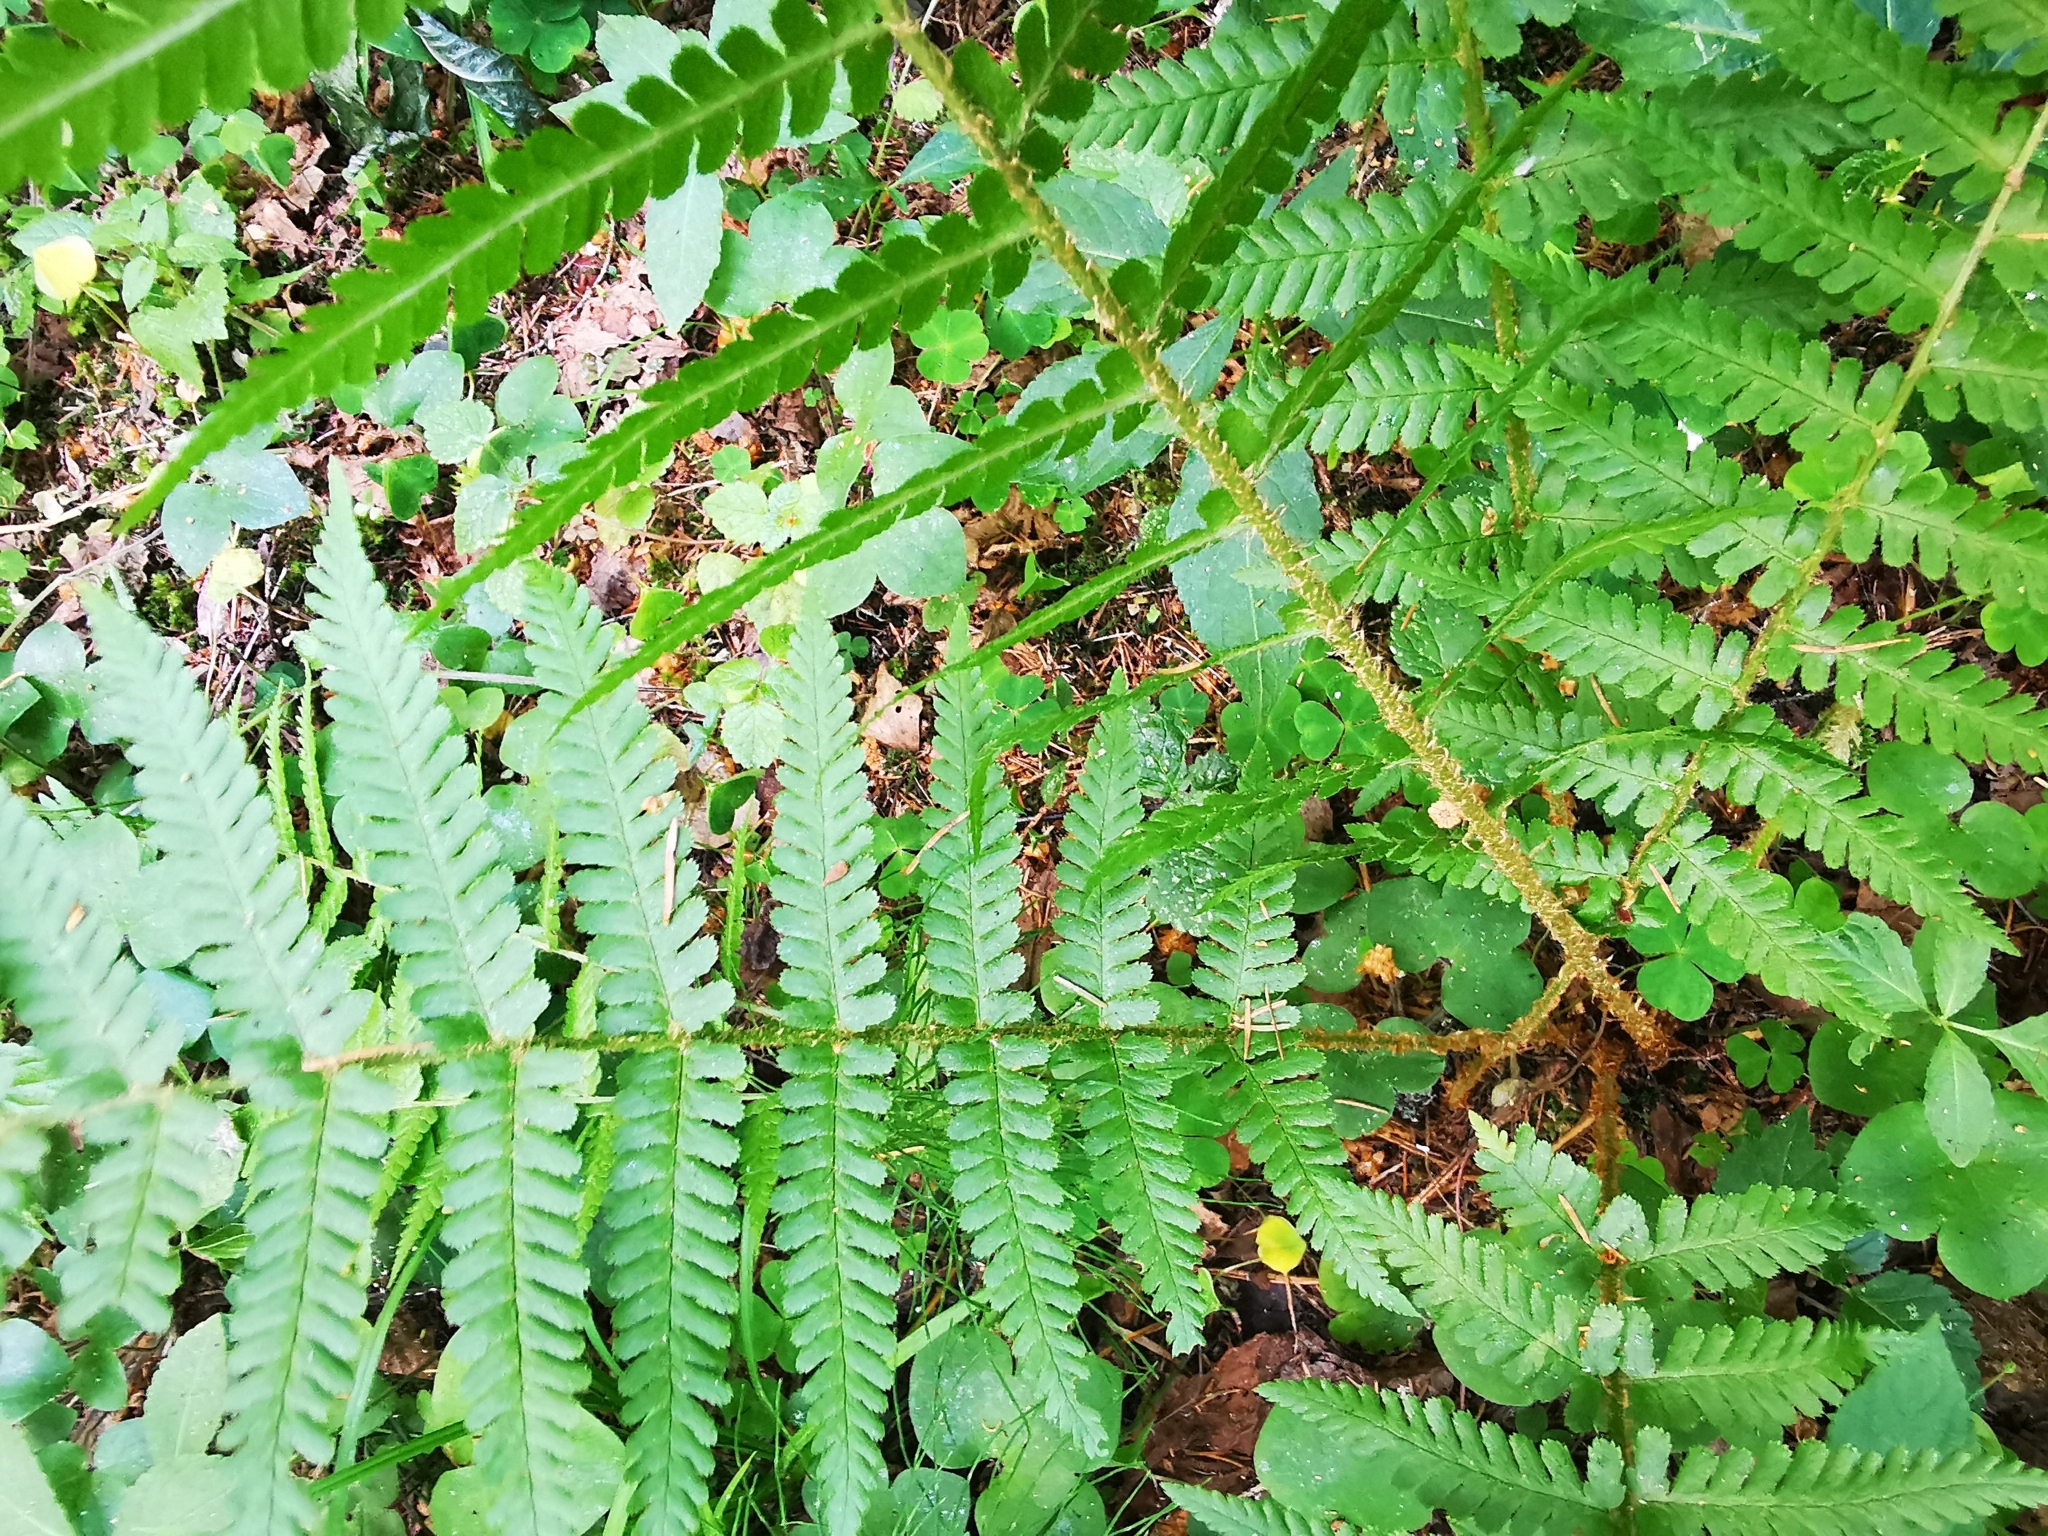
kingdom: Plantae
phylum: Tracheophyta
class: Polypodiopsida
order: Polypodiales
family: Dryopteridaceae
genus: Dryopteris
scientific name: Dryopteris filix-mas
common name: Male fern
